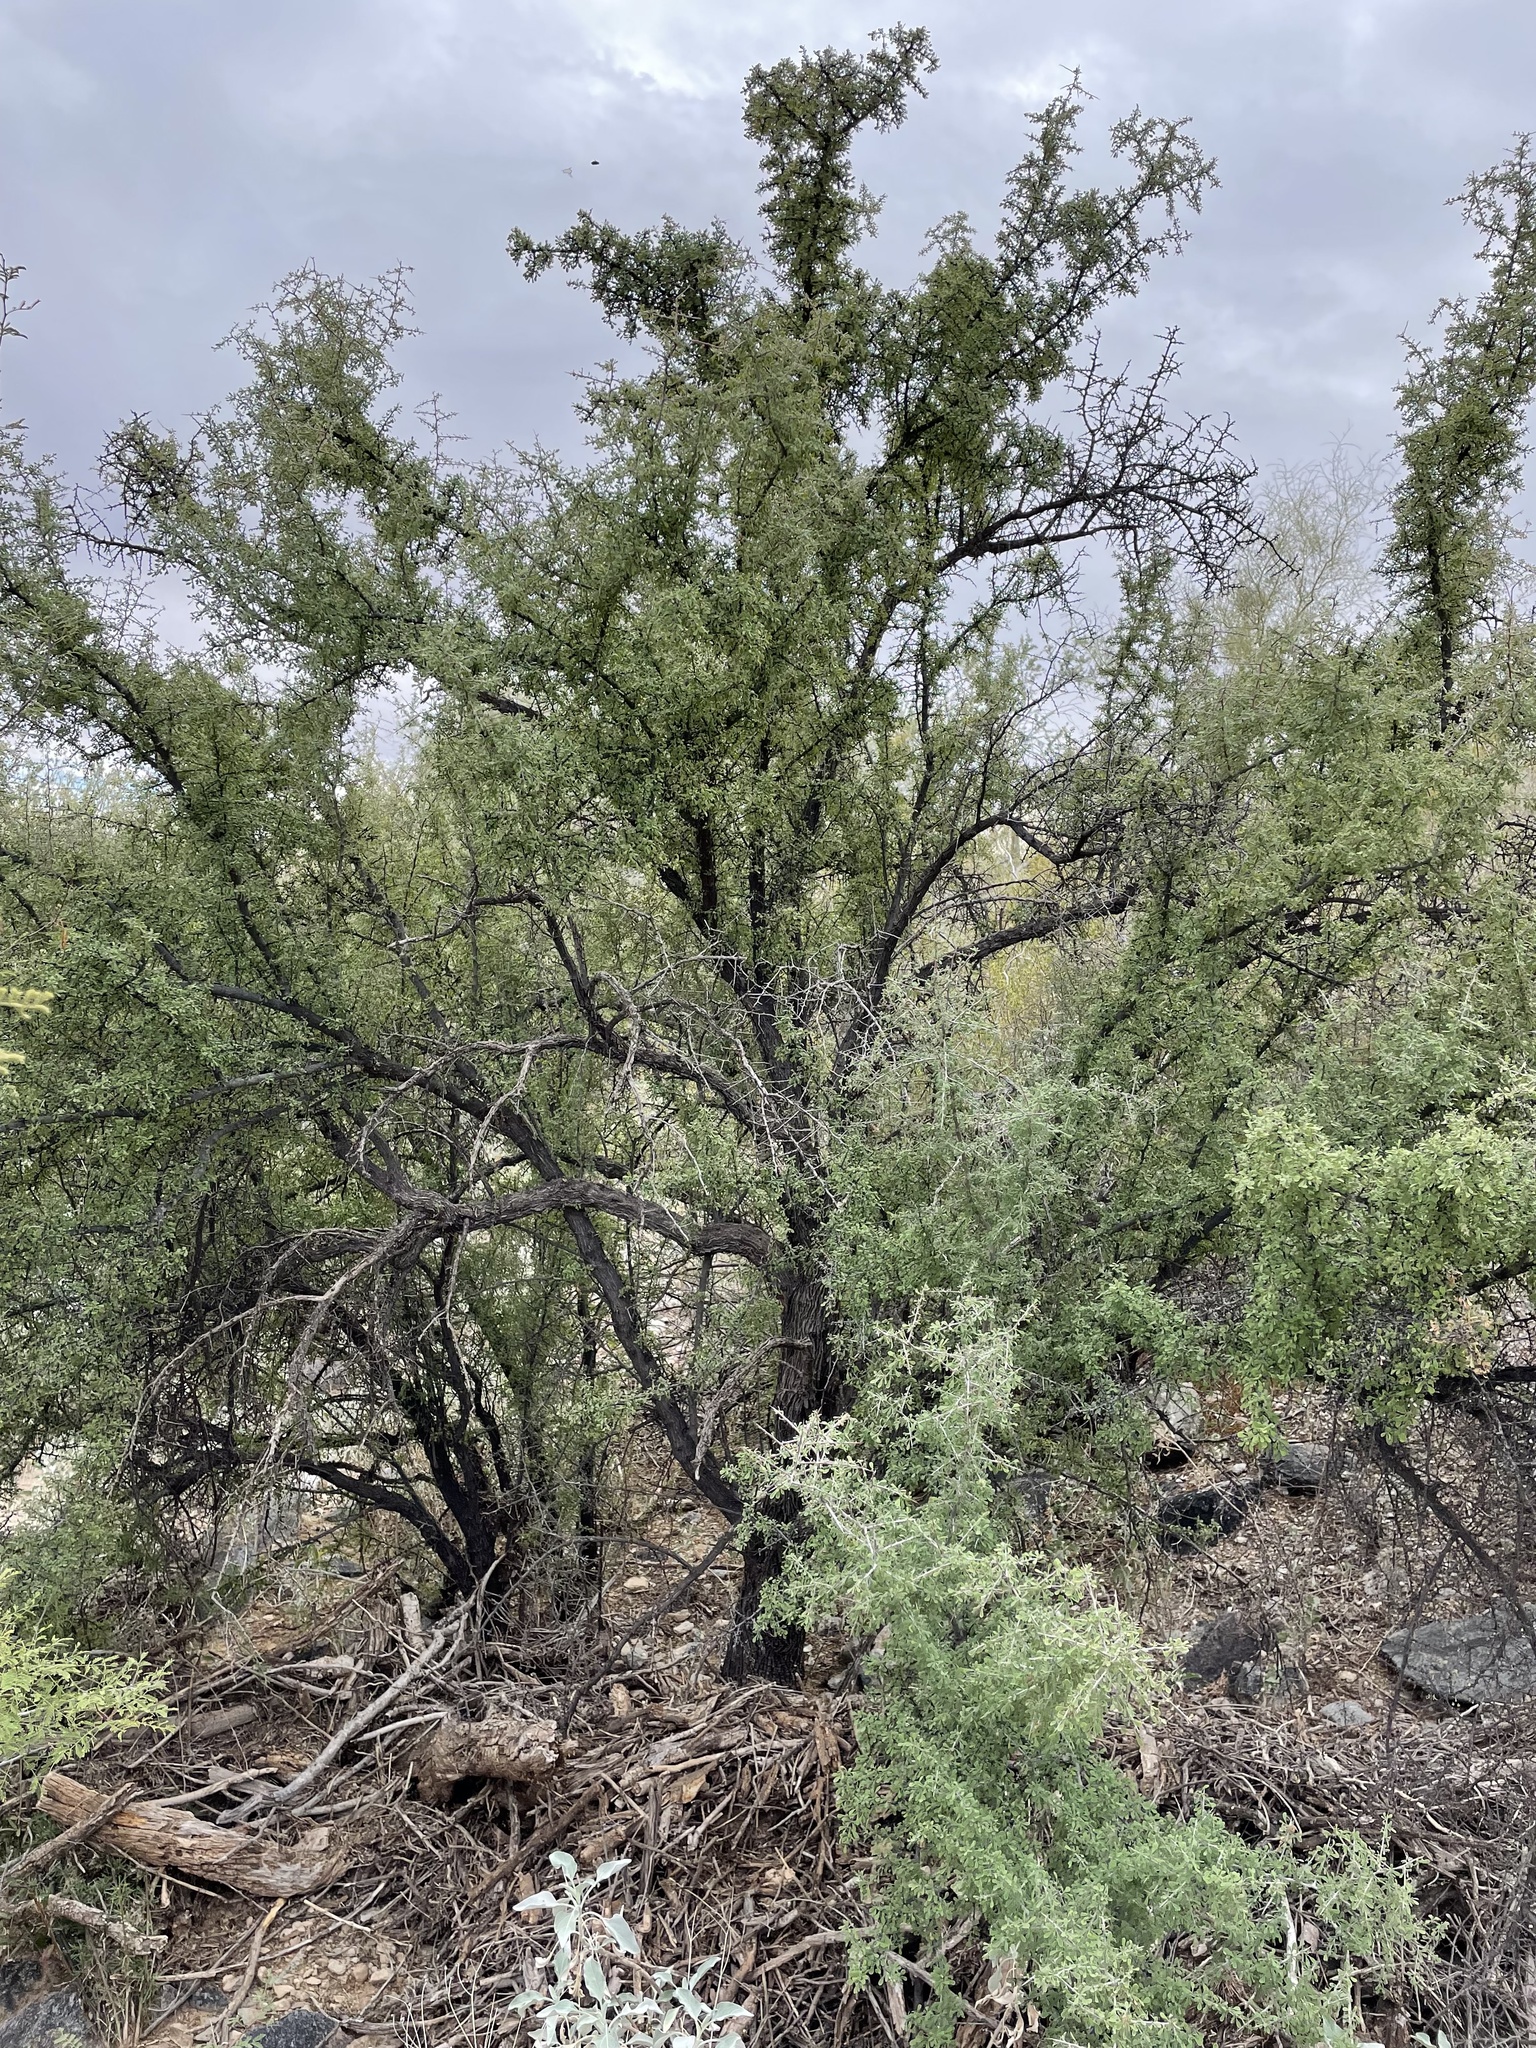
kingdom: Plantae
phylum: Tracheophyta
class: Magnoliopsida
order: Rosales
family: Rhamnaceae
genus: Condalia
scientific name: Condalia globosa
